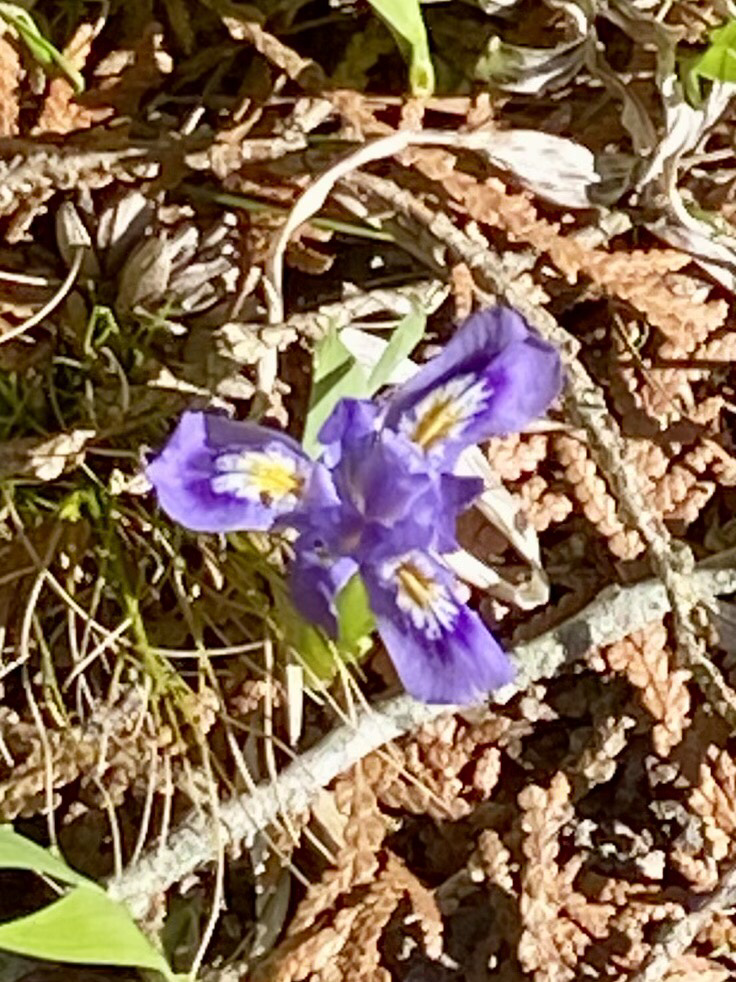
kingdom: Plantae
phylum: Tracheophyta
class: Liliopsida
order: Asparagales
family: Iridaceae
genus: Iris
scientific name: Iris lacustris
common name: Dwarf lake iris
